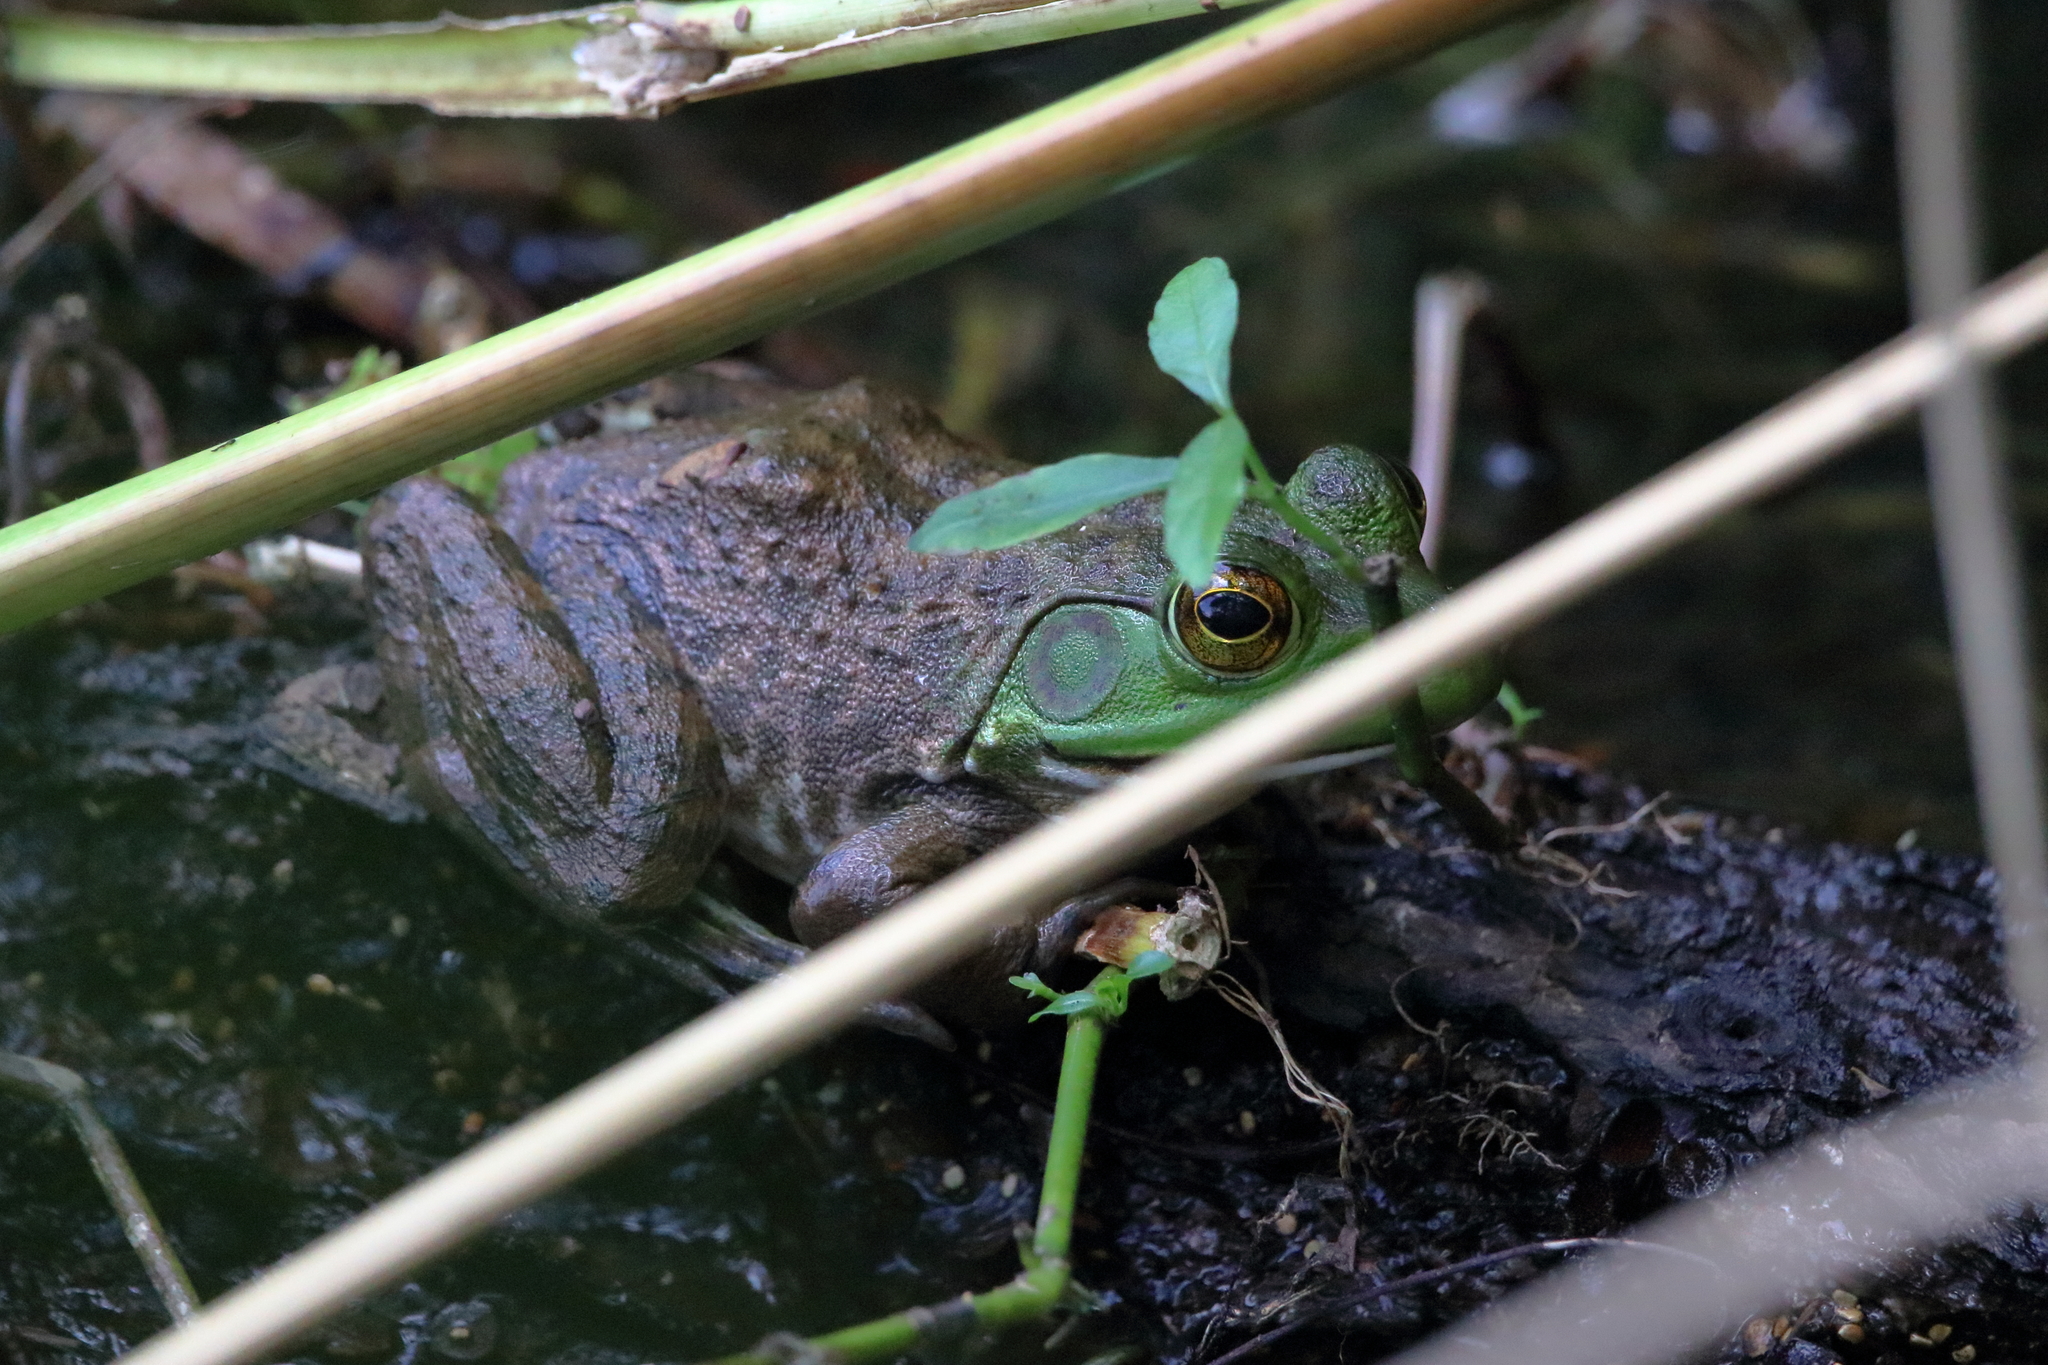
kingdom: Animalia
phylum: Chordata
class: Amphibia
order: Anura
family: Ranidae
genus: Lithobates
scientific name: Lithobates catesbeianus
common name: American bullfrog
